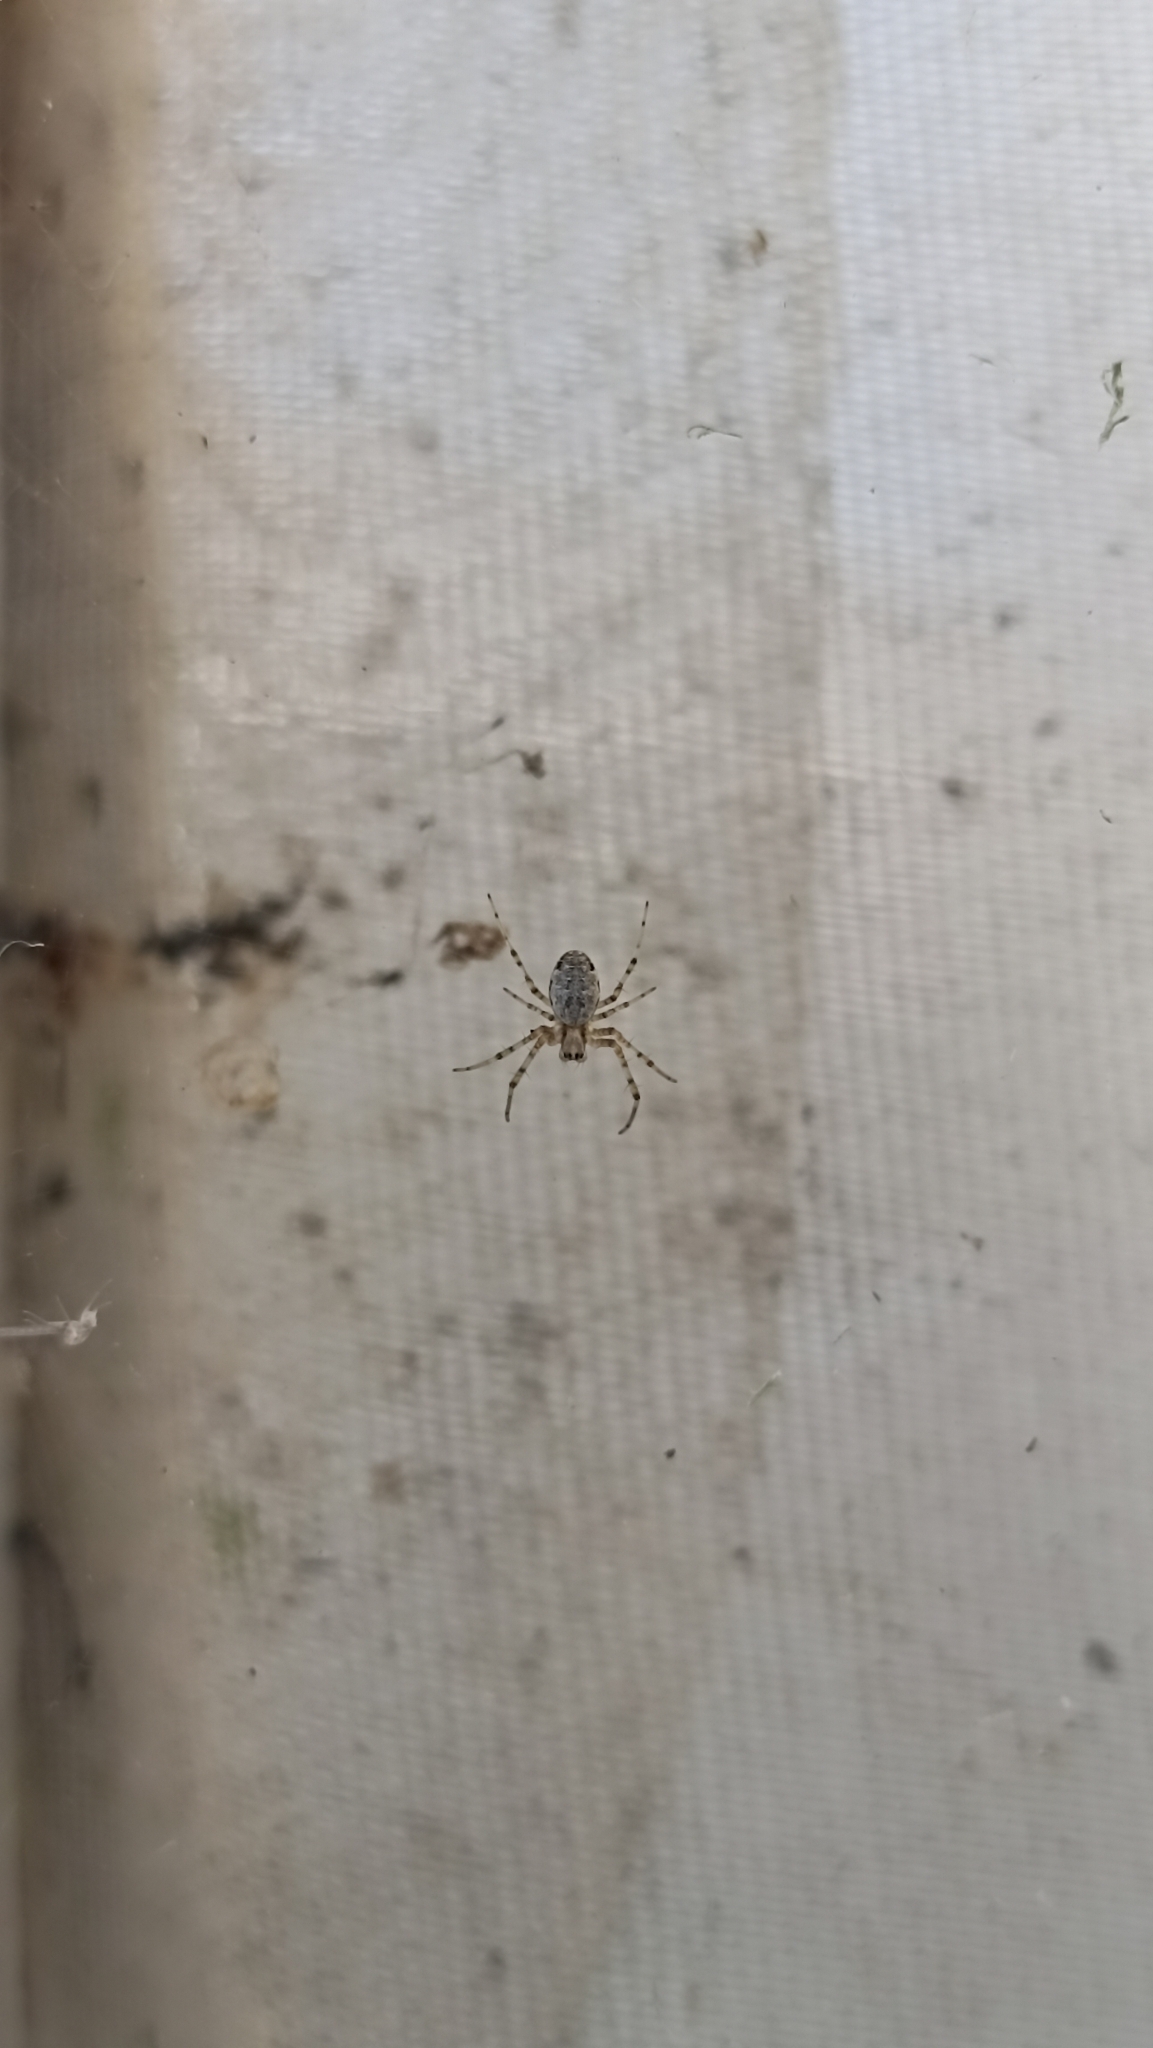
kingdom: Animalia
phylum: Arthropoda
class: Arachnida
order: Araneae
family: Araneidae
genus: Nephilingis
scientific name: Nephilingis cruentata
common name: African hermit spider
